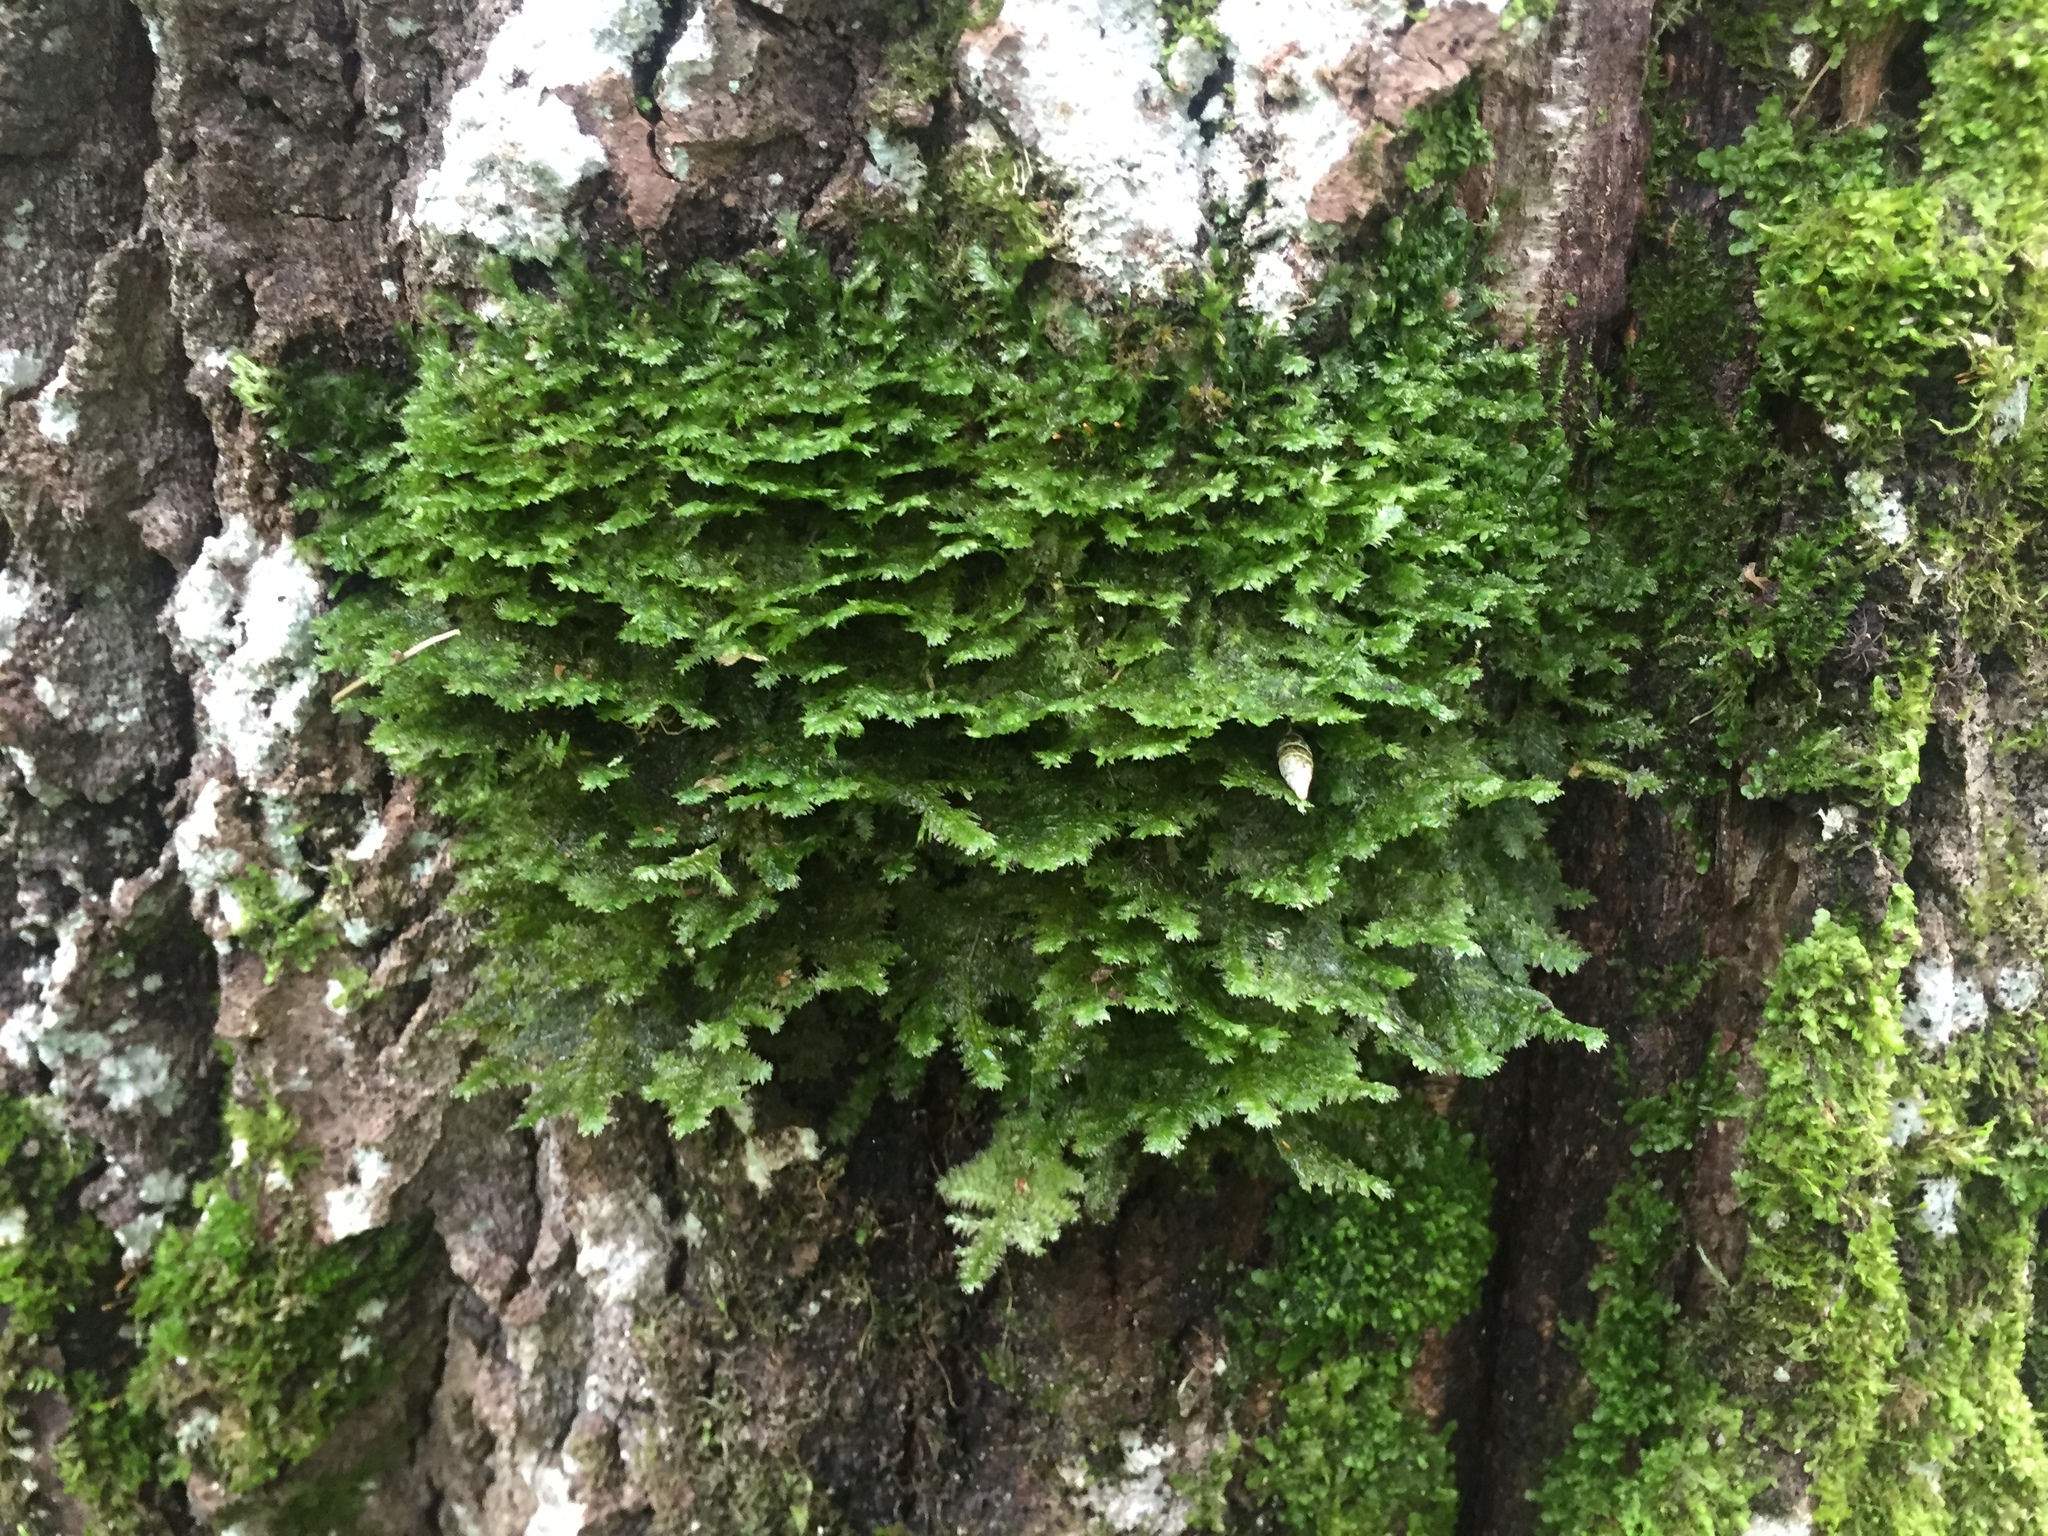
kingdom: Plantae
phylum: Bryophyta
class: Bryopsida
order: Hypnales
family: Neckeraceae
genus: Neckera
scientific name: Neckera pennata
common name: Feathery neckera
